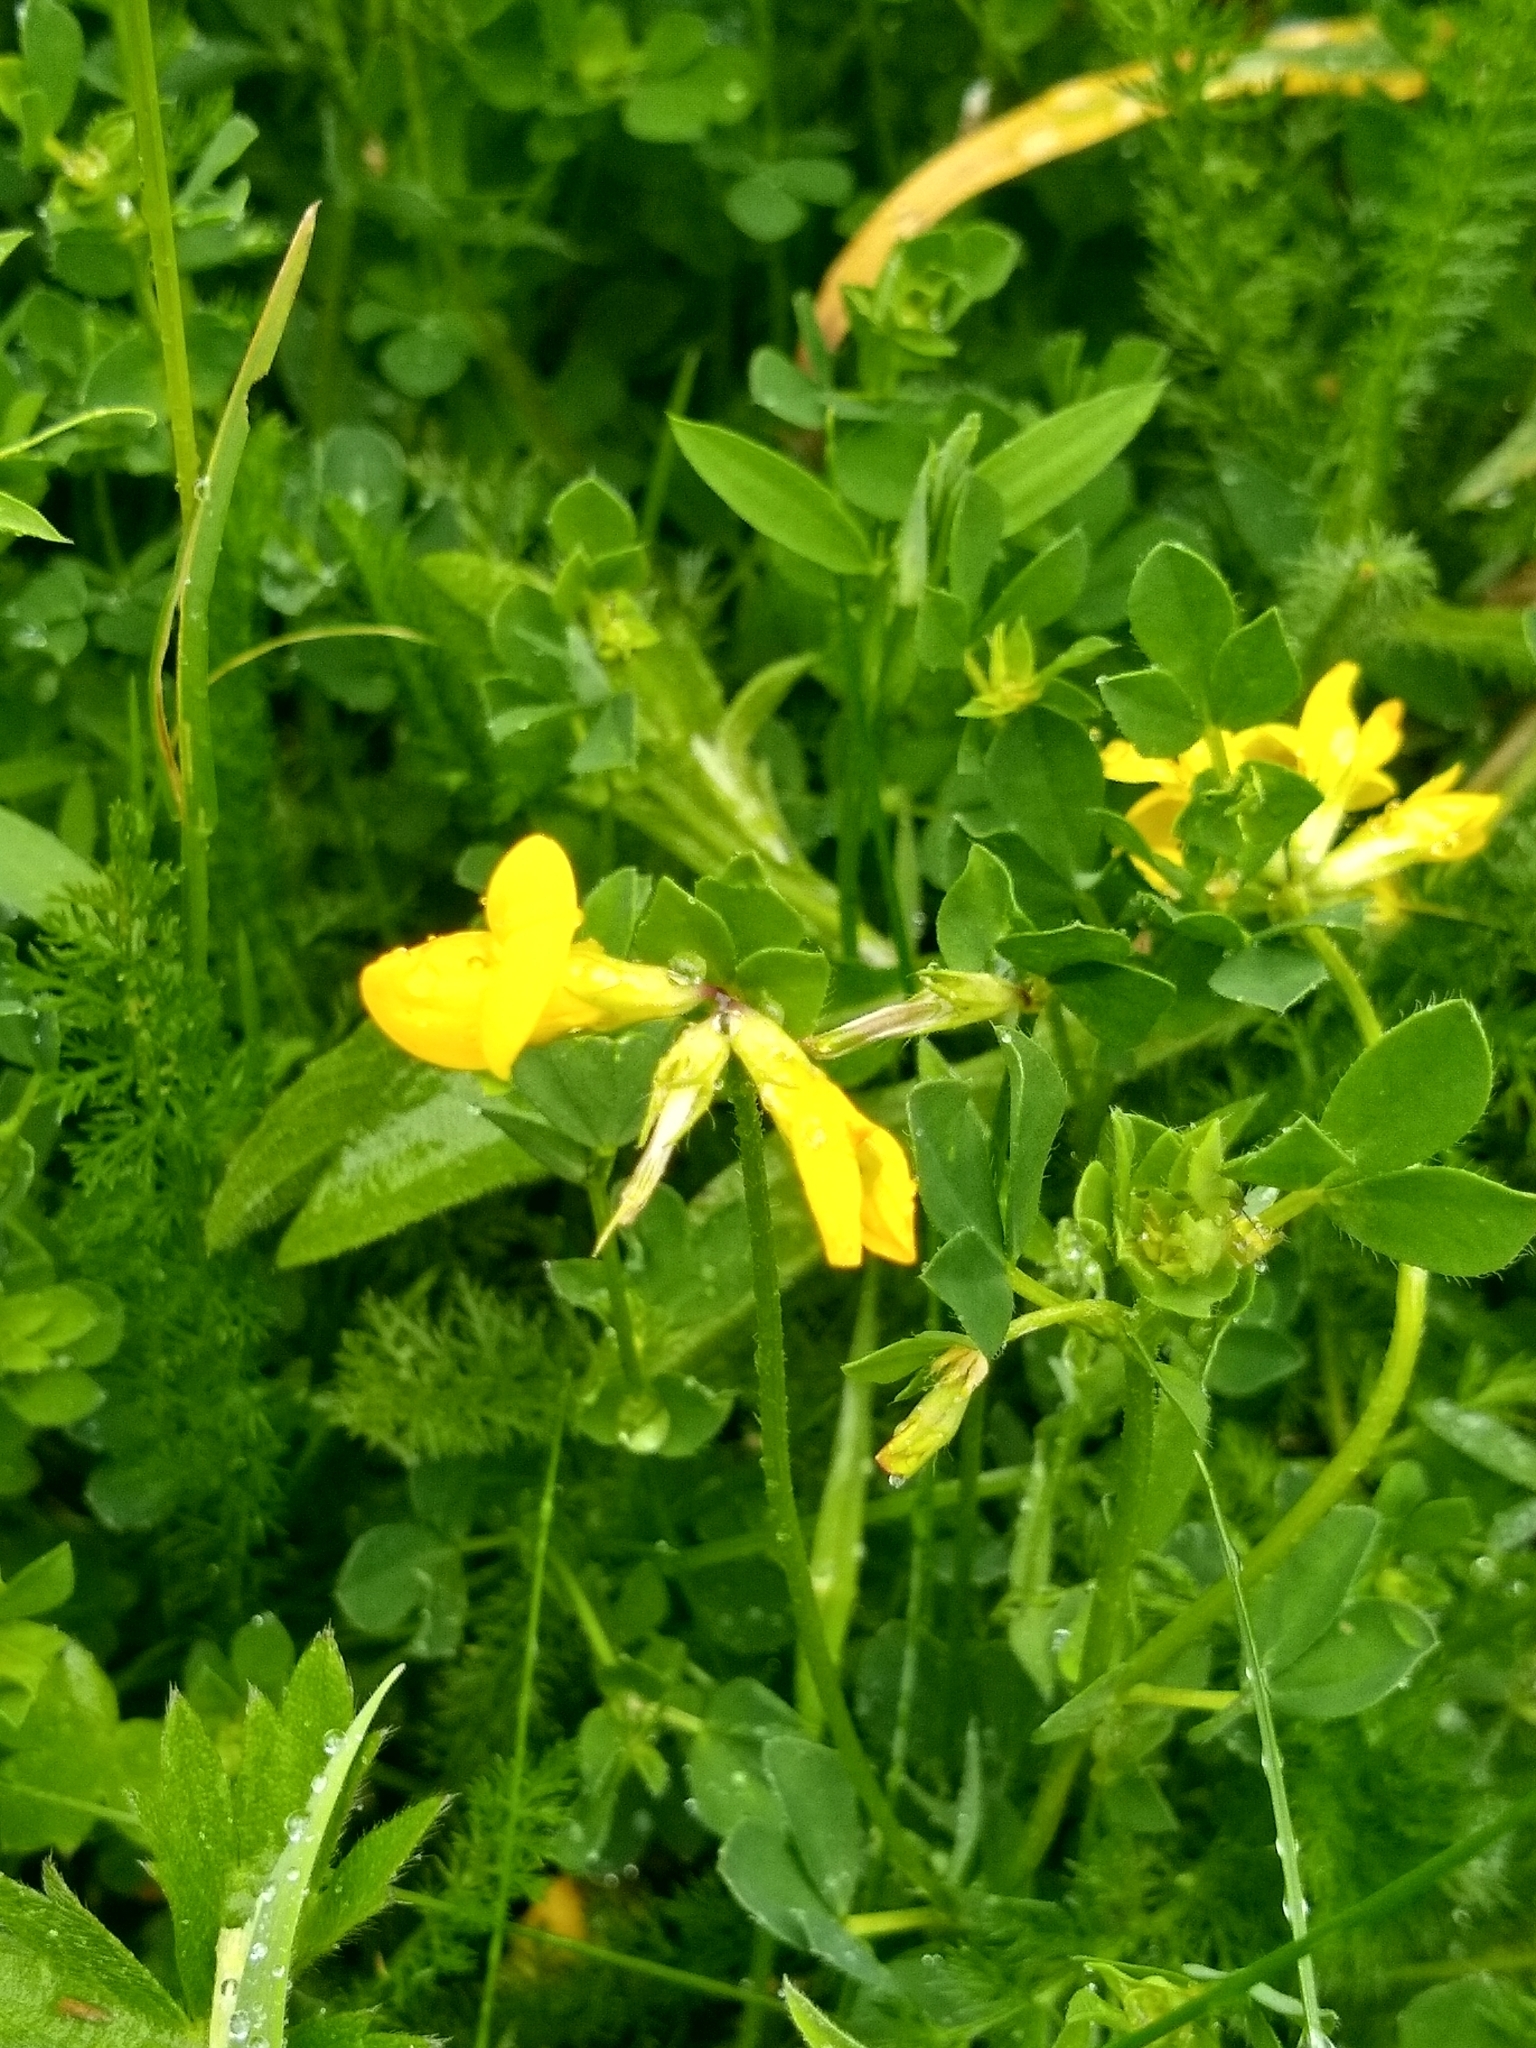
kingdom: Plantae
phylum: Tracheophyta
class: Magnoliopsida
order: Fabales
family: Fabaceae
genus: Lotus
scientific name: Lotus corniculatus
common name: Common bird's-foot-trefoil
